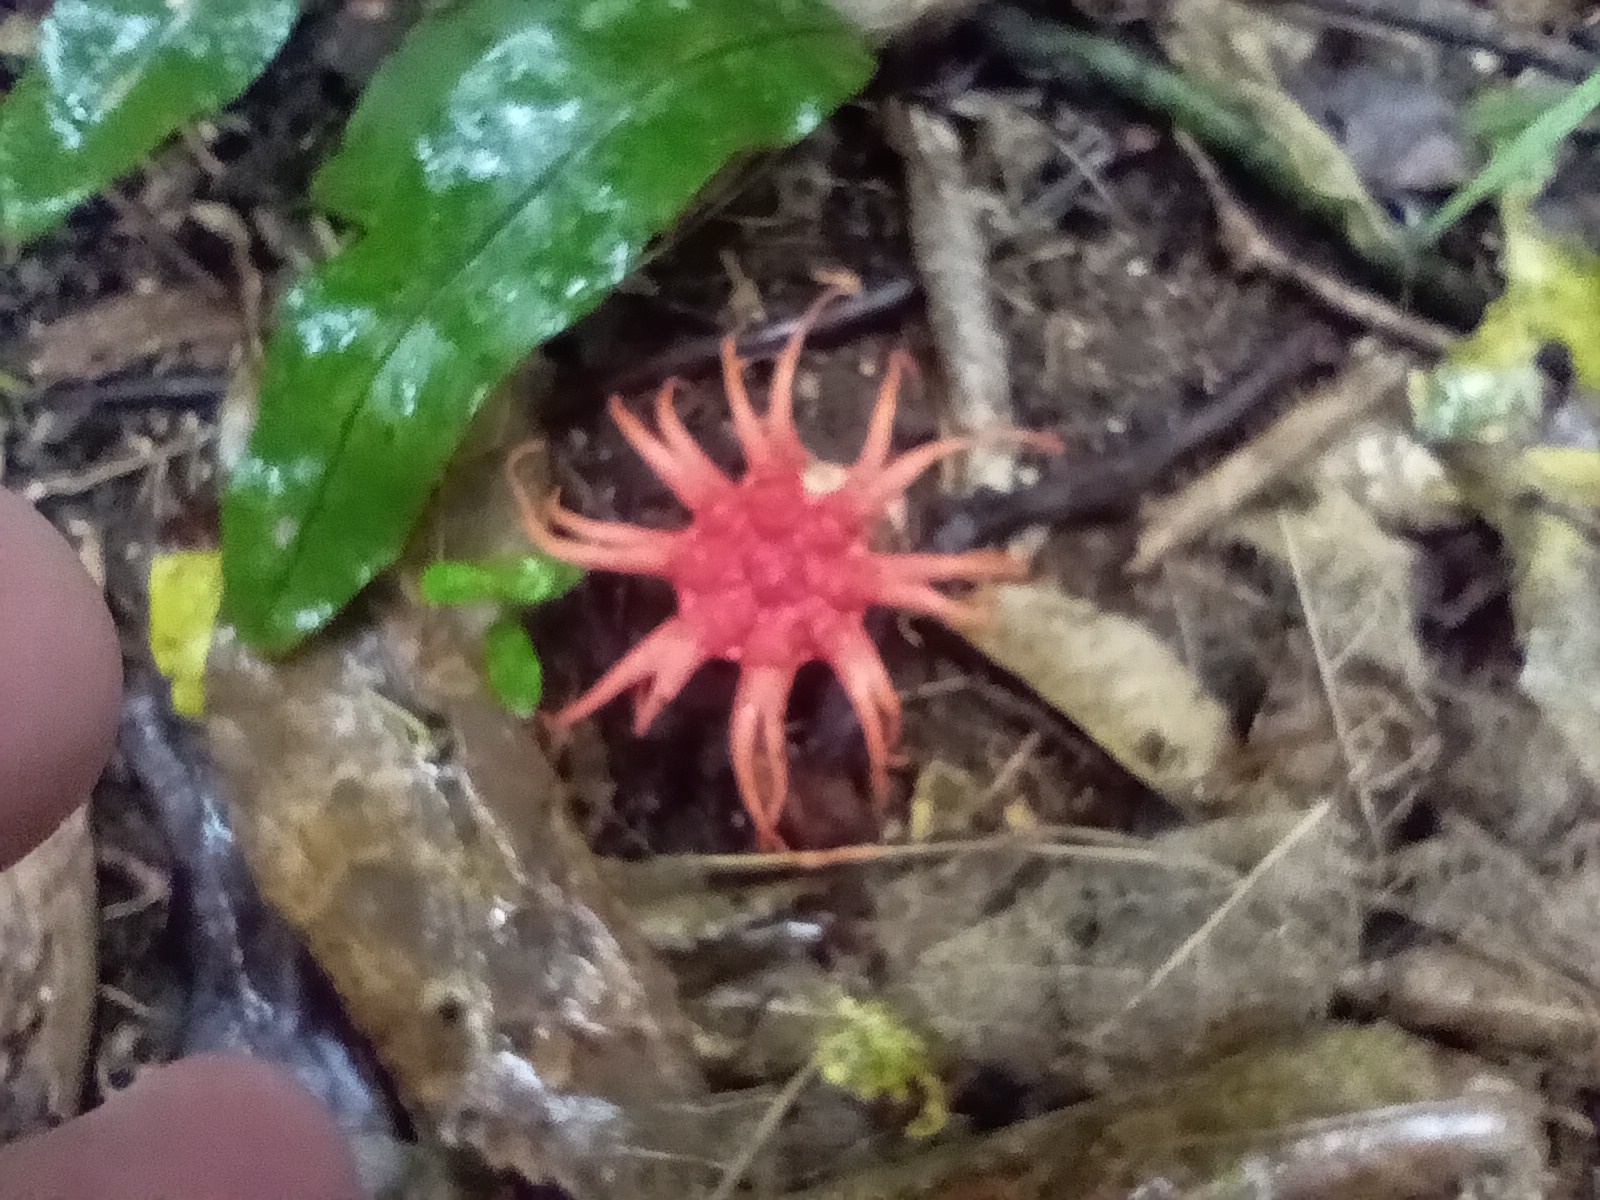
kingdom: Fungi
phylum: Basidiomycota
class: Agaricomycetes
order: Phallales
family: Phallaceae
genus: Aseroe
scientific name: Aseroe rubra
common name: Starfish fungus
